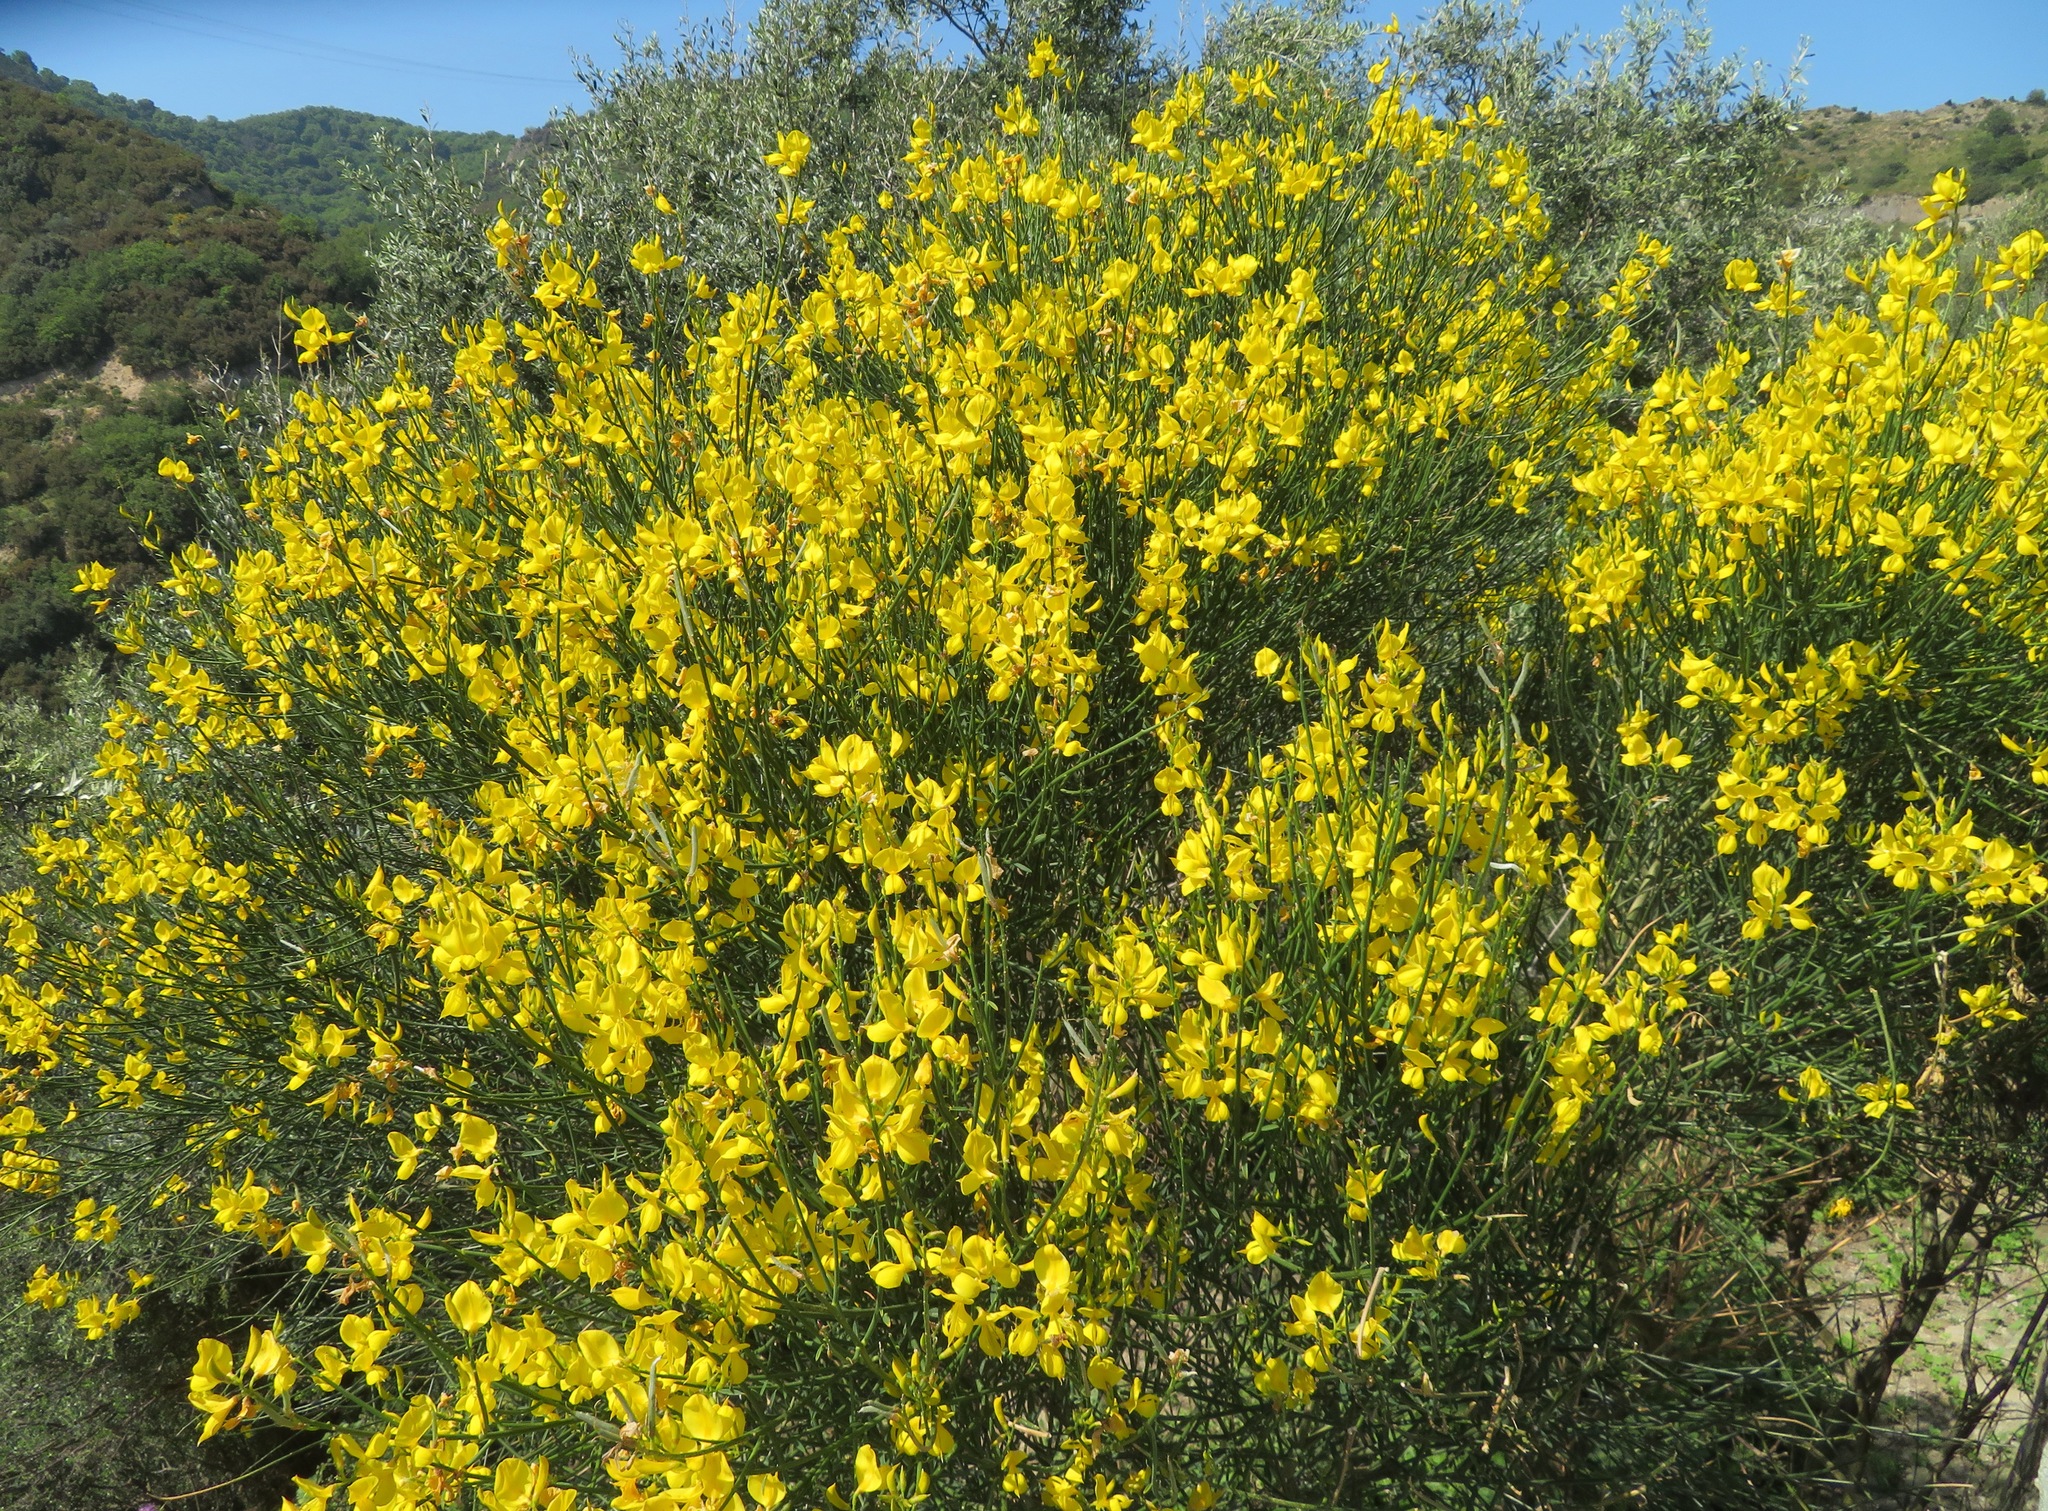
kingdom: Plantae
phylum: Tracheophyta
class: Magnoliopsida
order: Fabales
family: Fabaceae
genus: Spartium
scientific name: Spartium junceum
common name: Spanish broom
